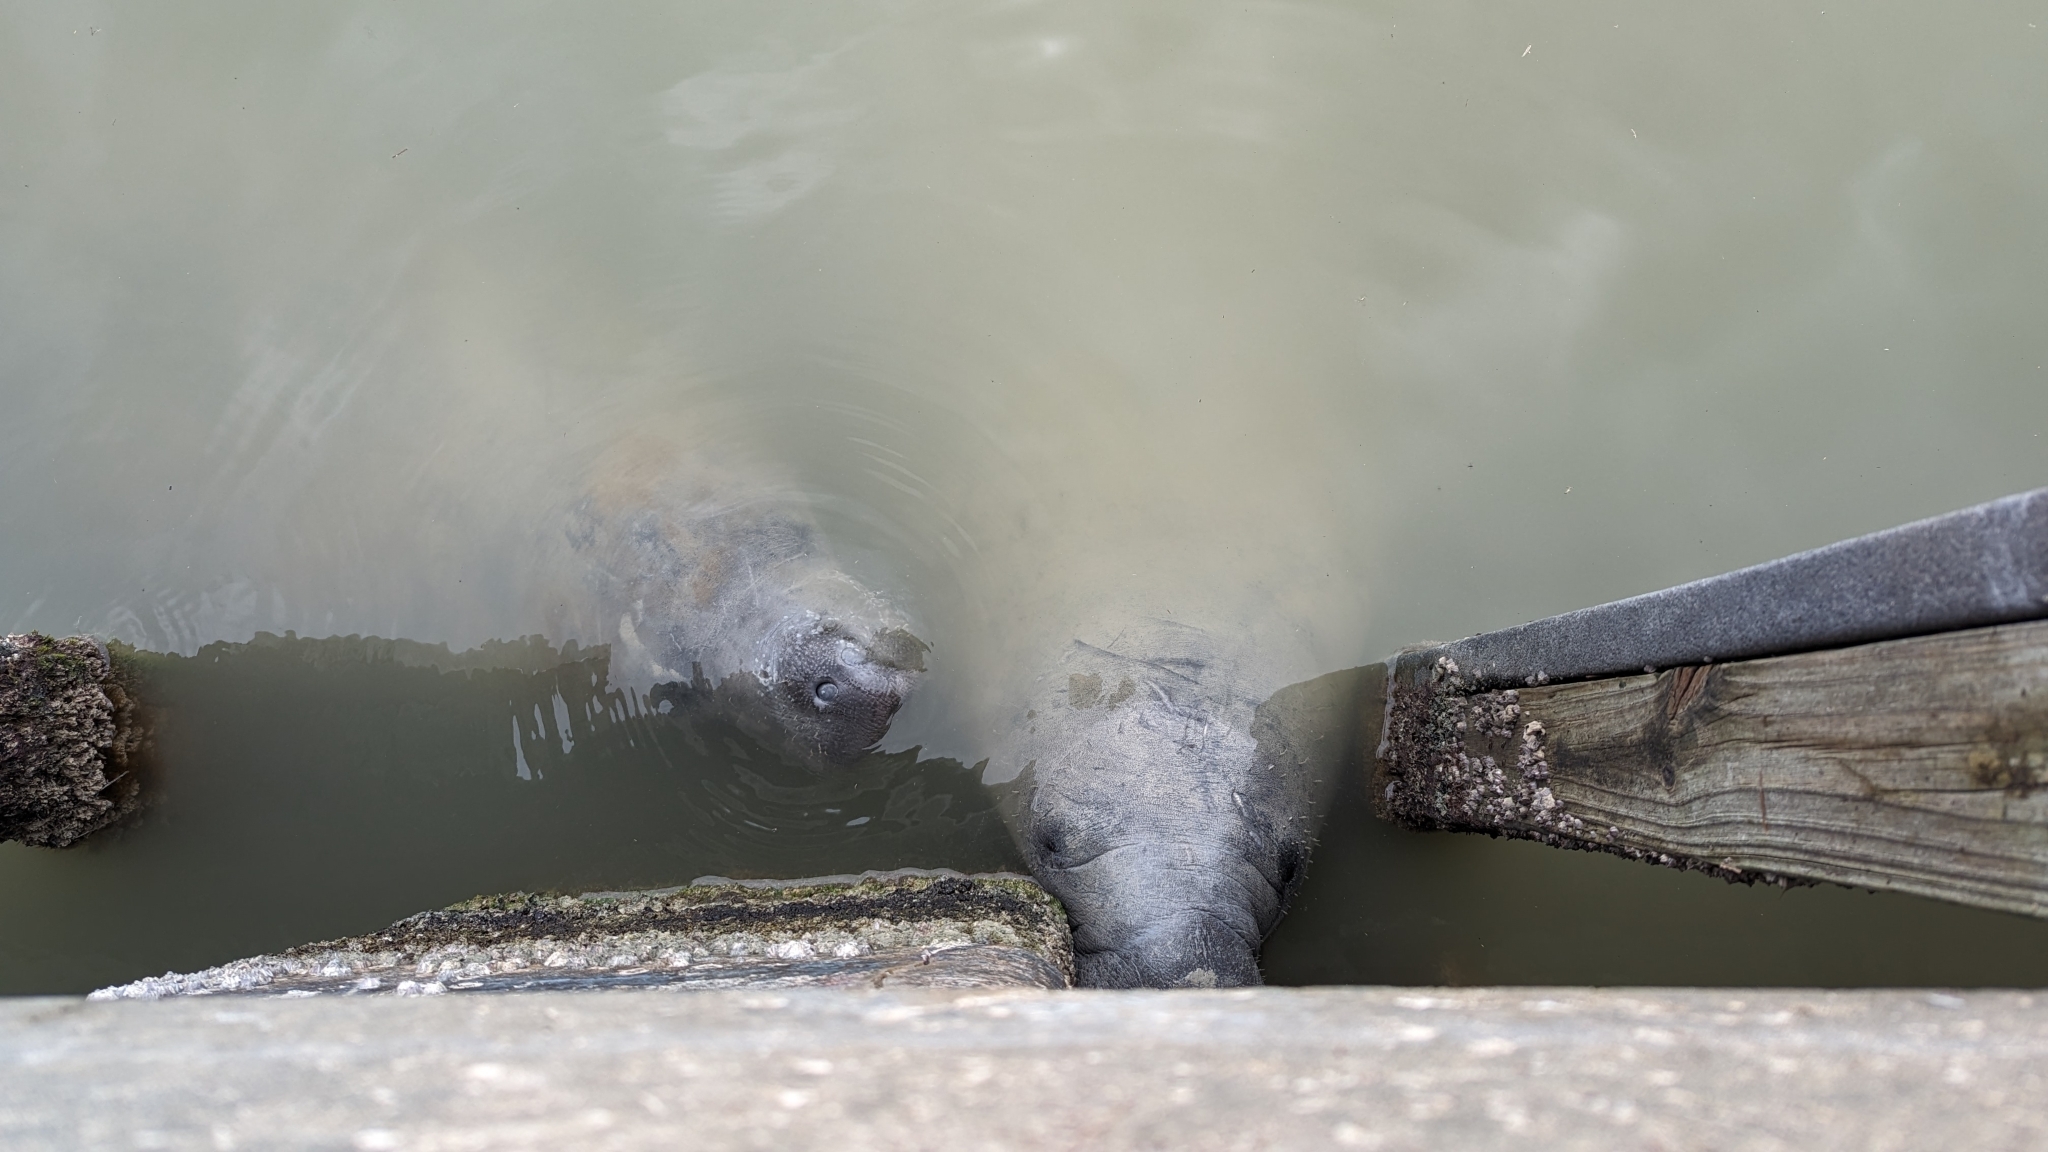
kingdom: Animalia
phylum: Chordata
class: Mammalia
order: Sirenia
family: Trichechidae
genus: Trichechus
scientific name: Trichechus manatus
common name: West indian manatee
